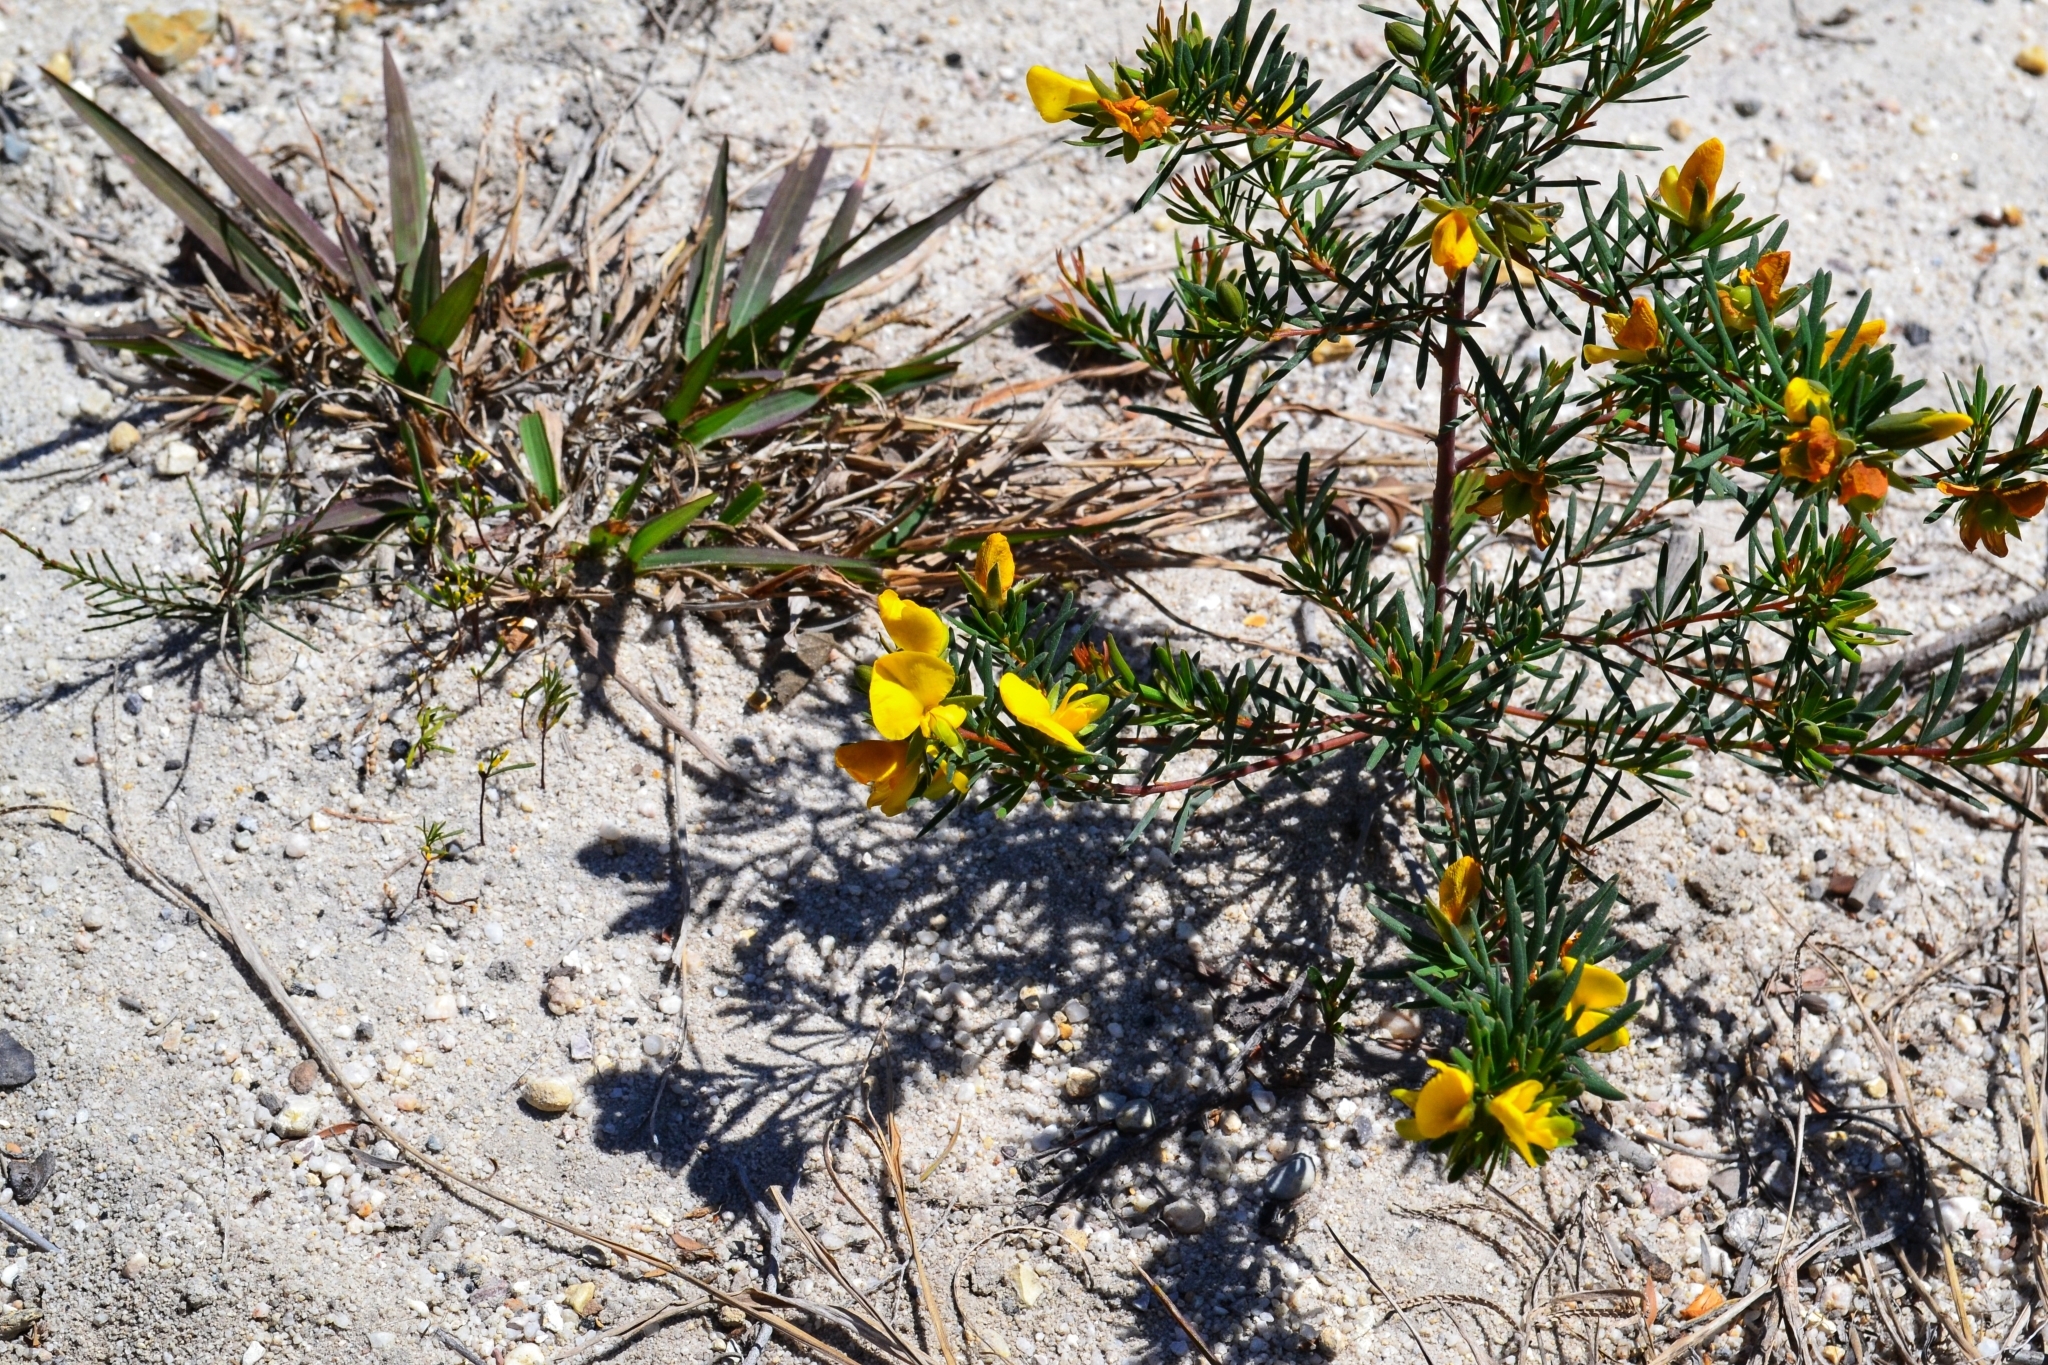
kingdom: Plantae
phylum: Tracheophyta
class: Magnoliopsida
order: Fabales
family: Fabaceae
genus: Gompholobium
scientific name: Gompholobium virgatum
